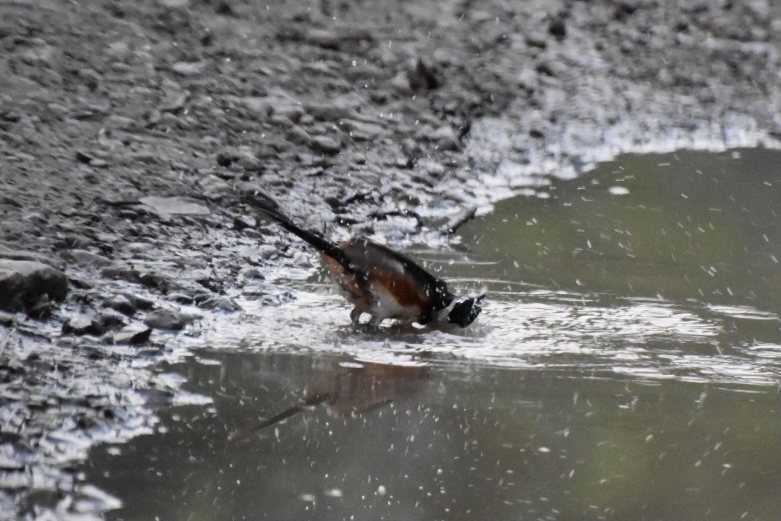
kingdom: Animalia
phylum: Chordata
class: Aves
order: Passeriformes
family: Passerellidae
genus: Pipilo
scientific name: Pipilo erythrophthalmus
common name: Eastern towhee
